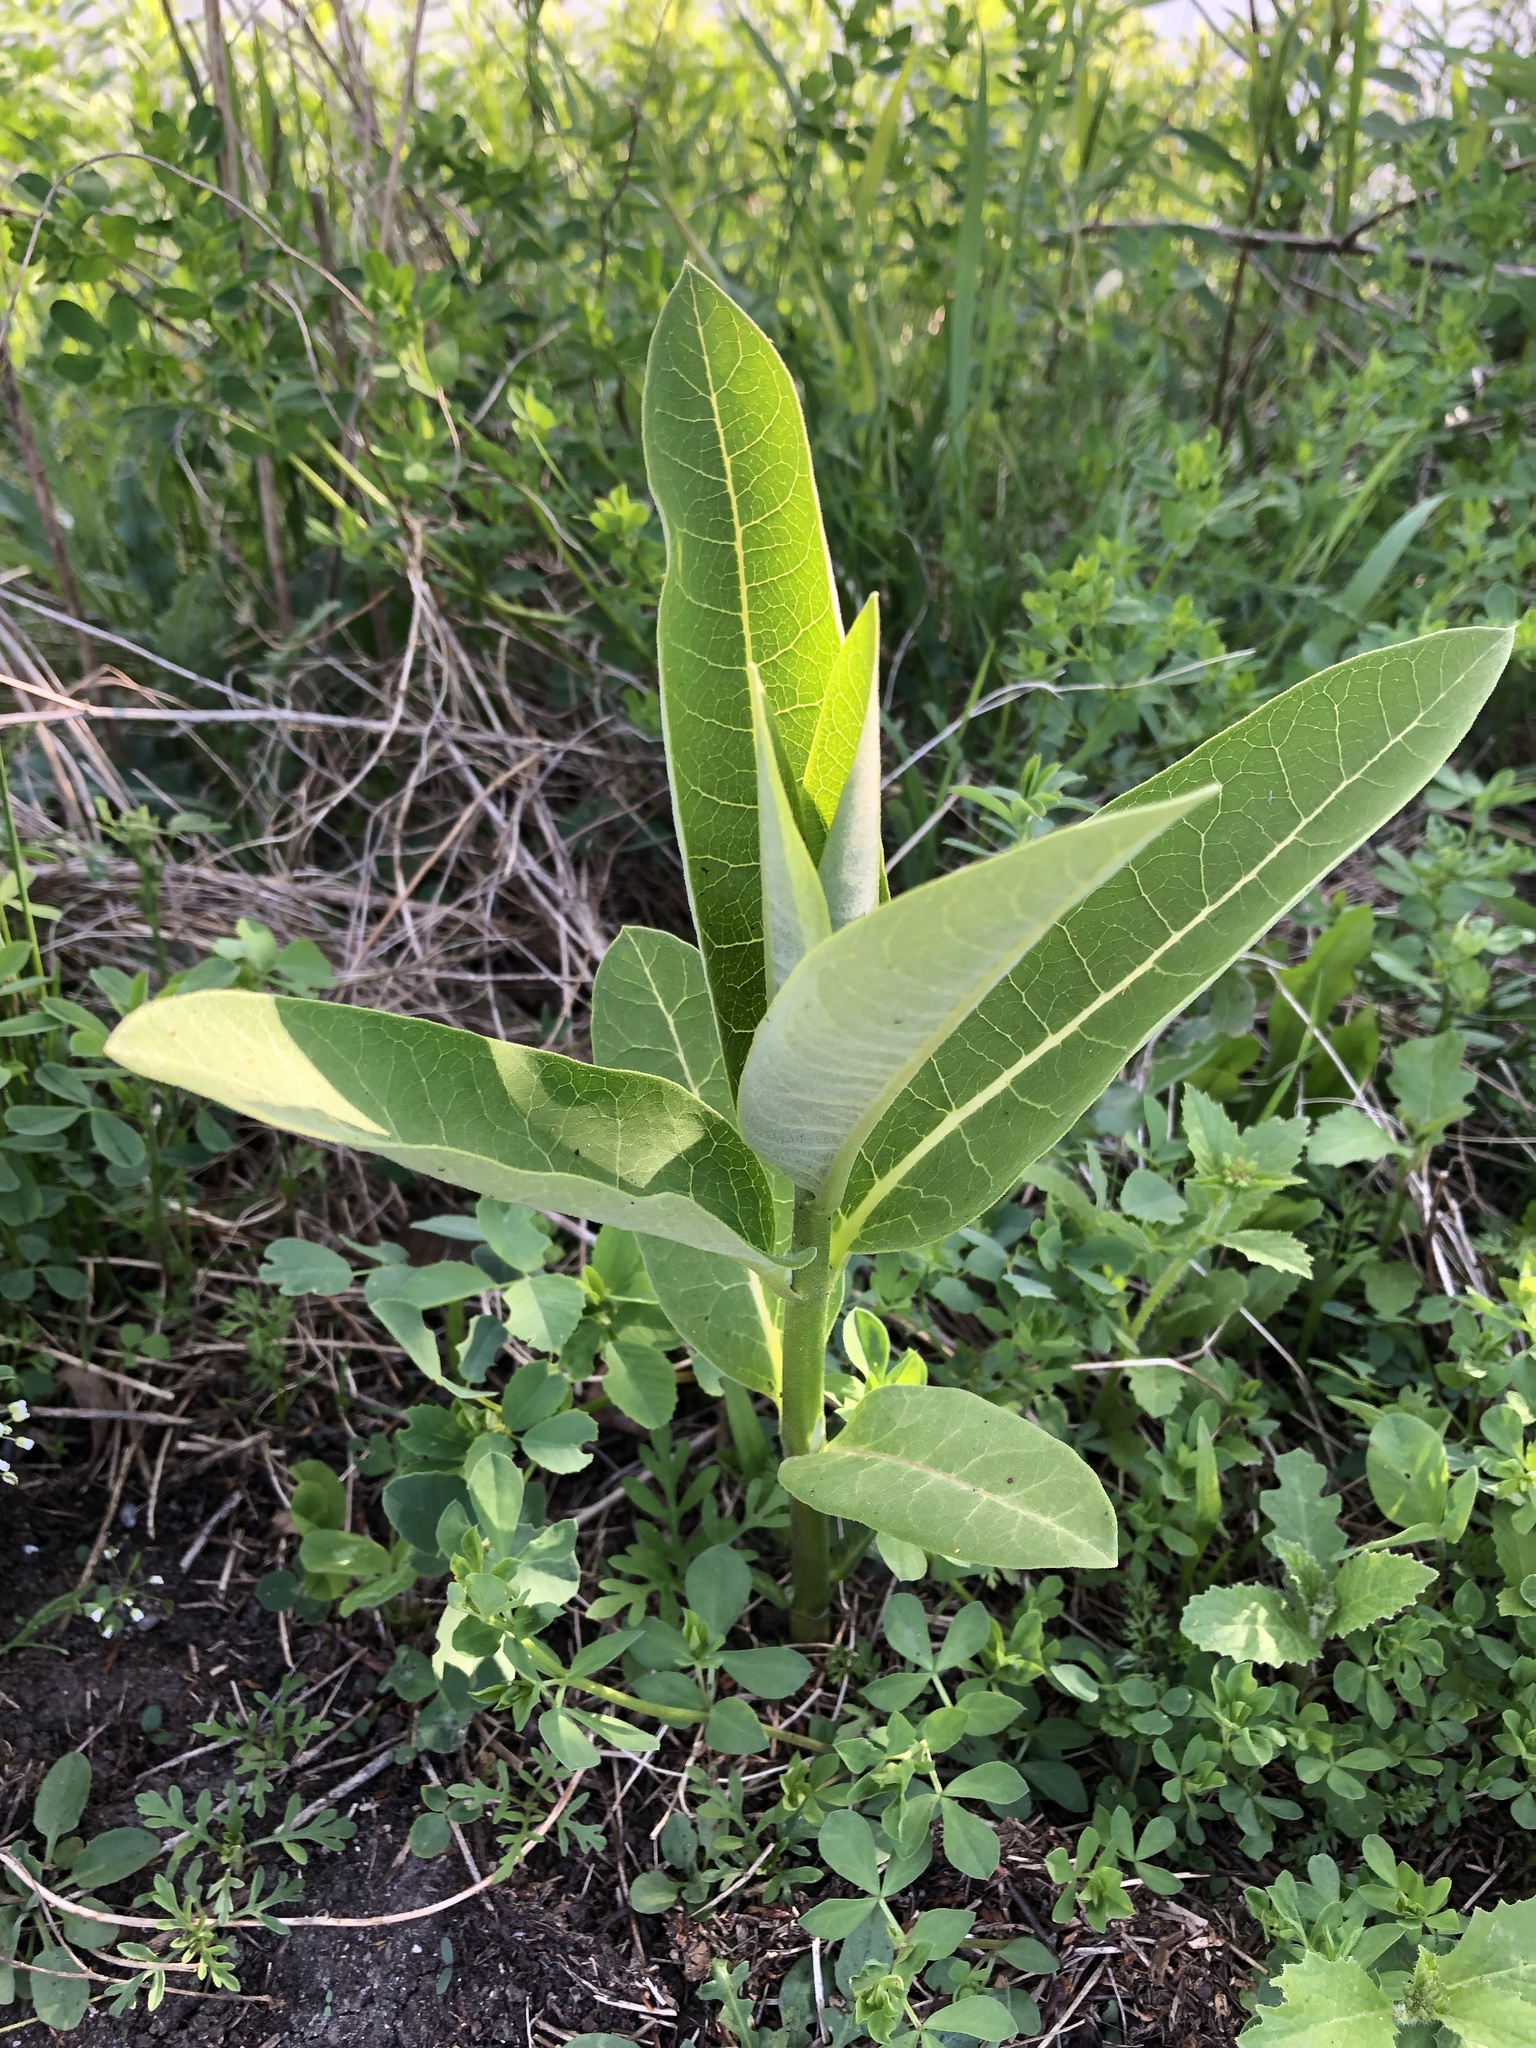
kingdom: Plantae
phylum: Tracheophyta
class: Magnoliopsida
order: Gentianales
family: Apocynaceae
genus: Asclepias
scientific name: Asclepias syriaca
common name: Common milkweed
